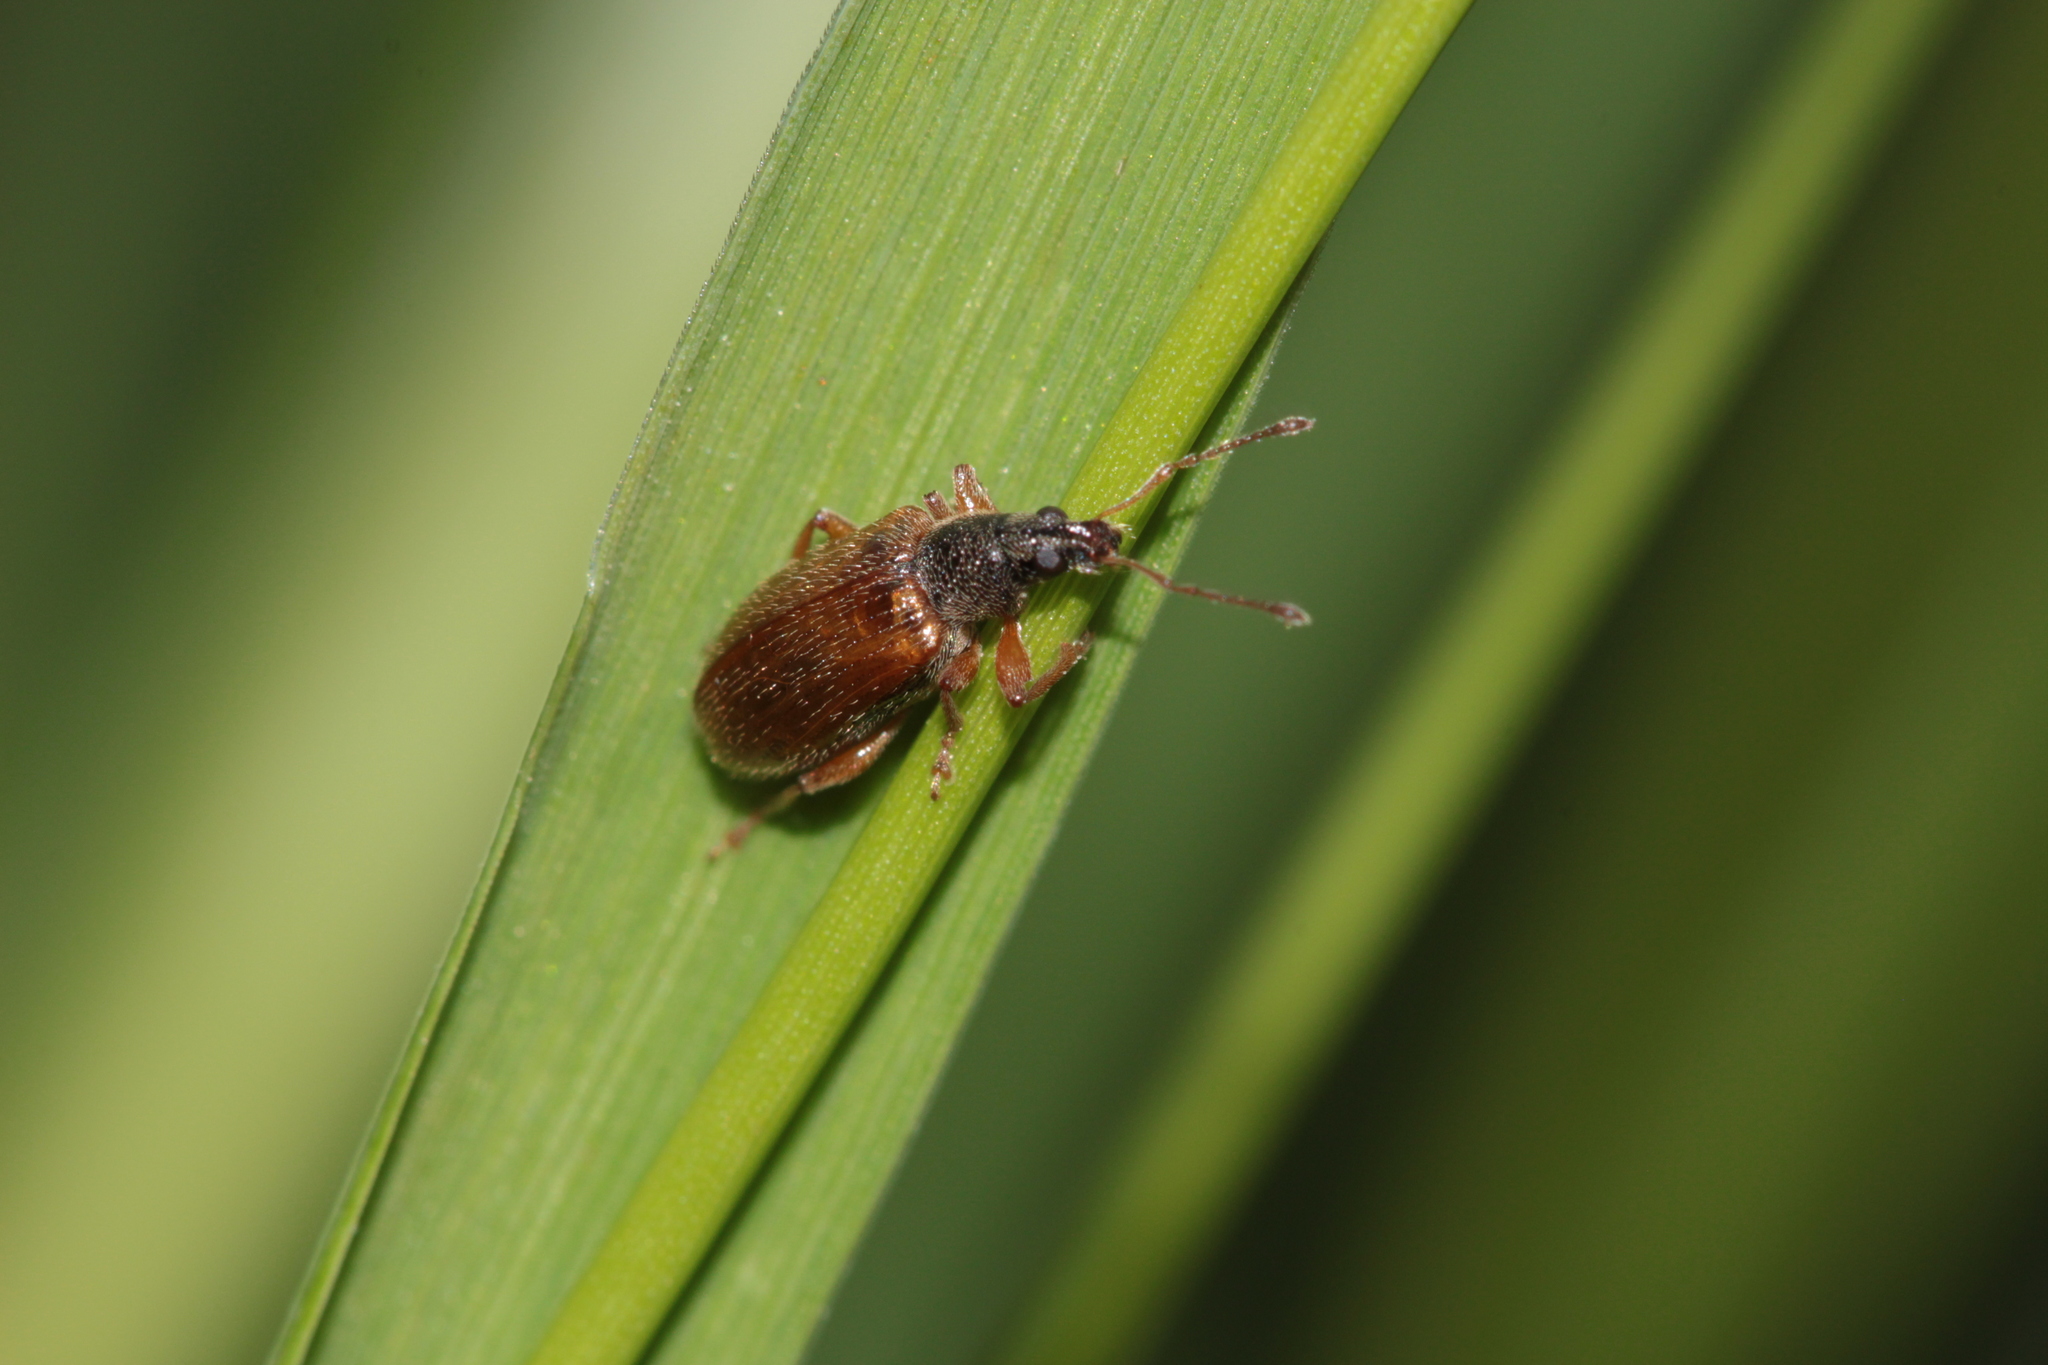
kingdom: Animalia
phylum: Arthropoda
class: Insecta
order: Coleoptera
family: Curculionidae
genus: Phyllobius
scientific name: Phyllobius oblongus
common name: Brown leaf weevil
